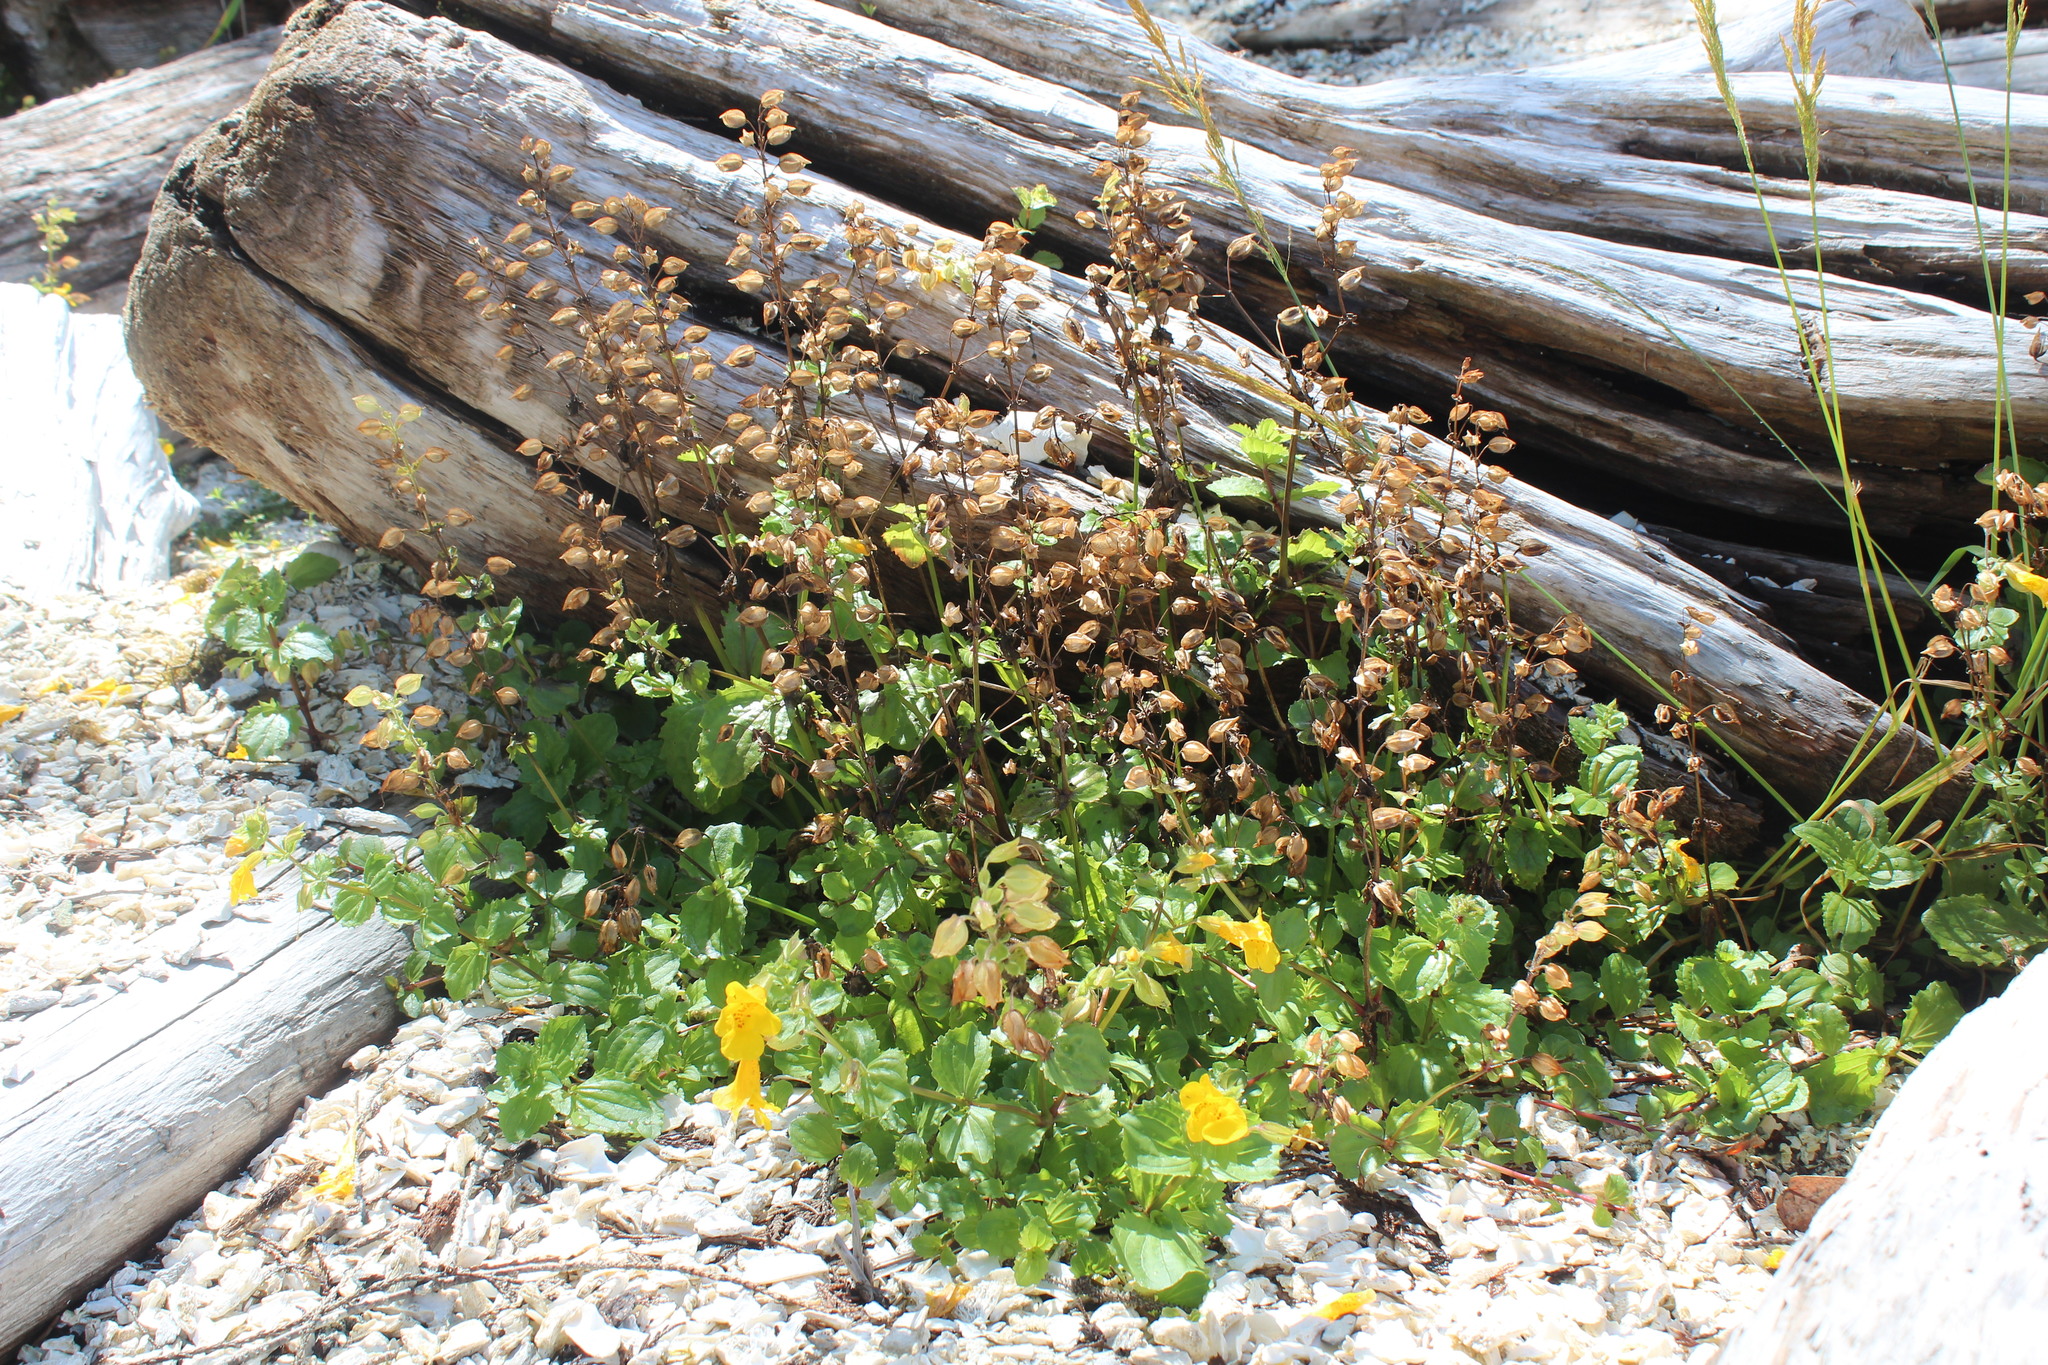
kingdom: Plantae
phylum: Tracheophyta
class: Magnoliopsida
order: Lamiales
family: Phrymaceae
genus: Erythranthe
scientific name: Erythranthe guttata
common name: Monkeyflower
